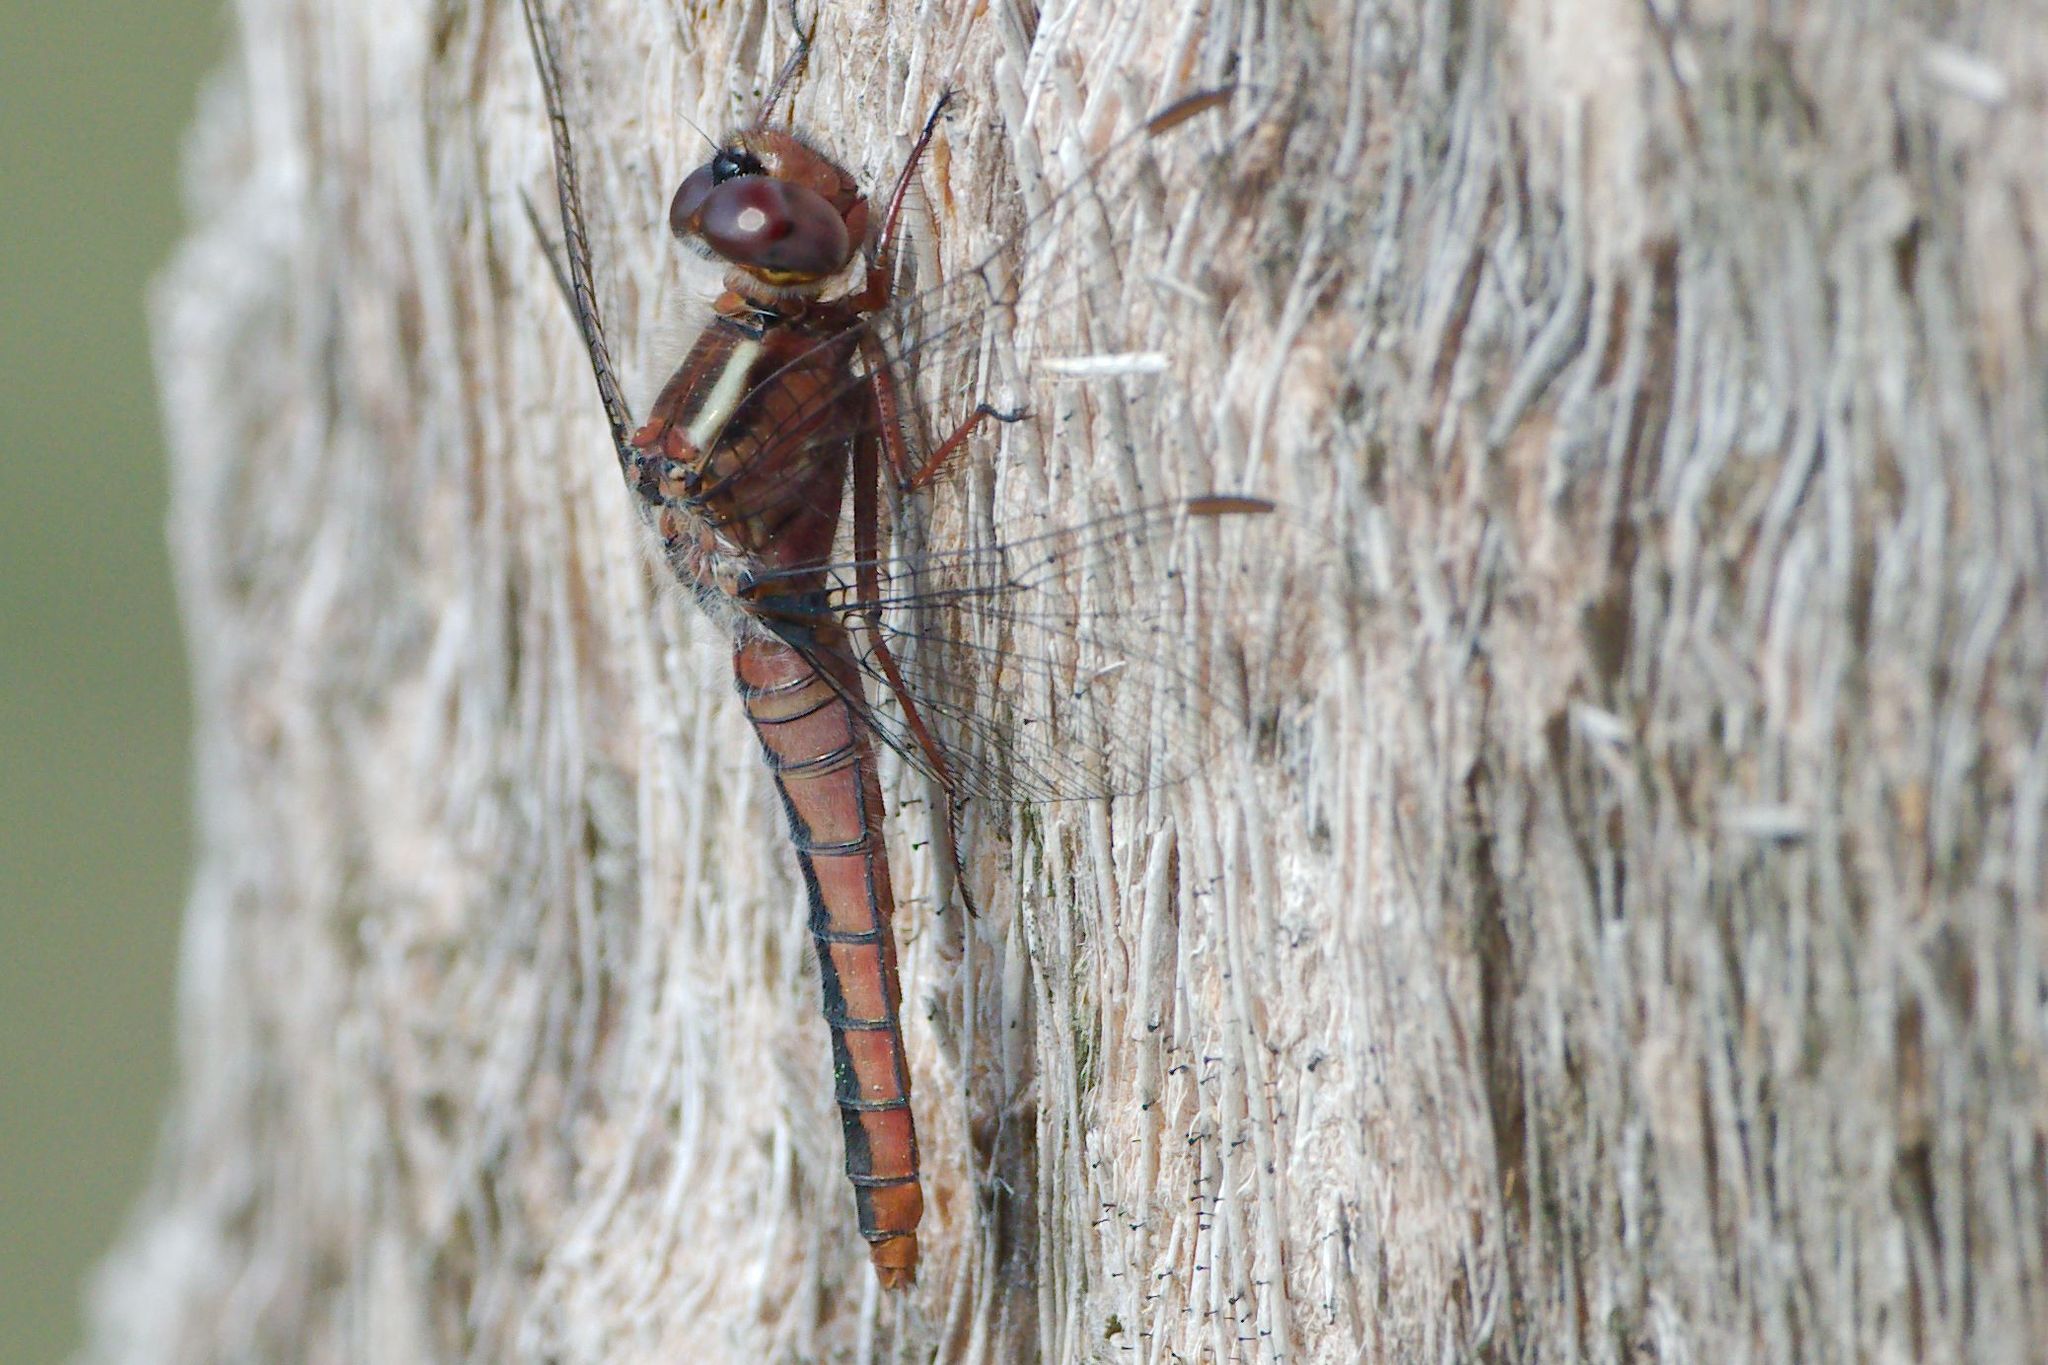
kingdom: Animalia
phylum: Arthropoda
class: Insecta
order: Odonata
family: Libellulidae
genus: Ladona
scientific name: Ladona deplanata
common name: Blue corporal
